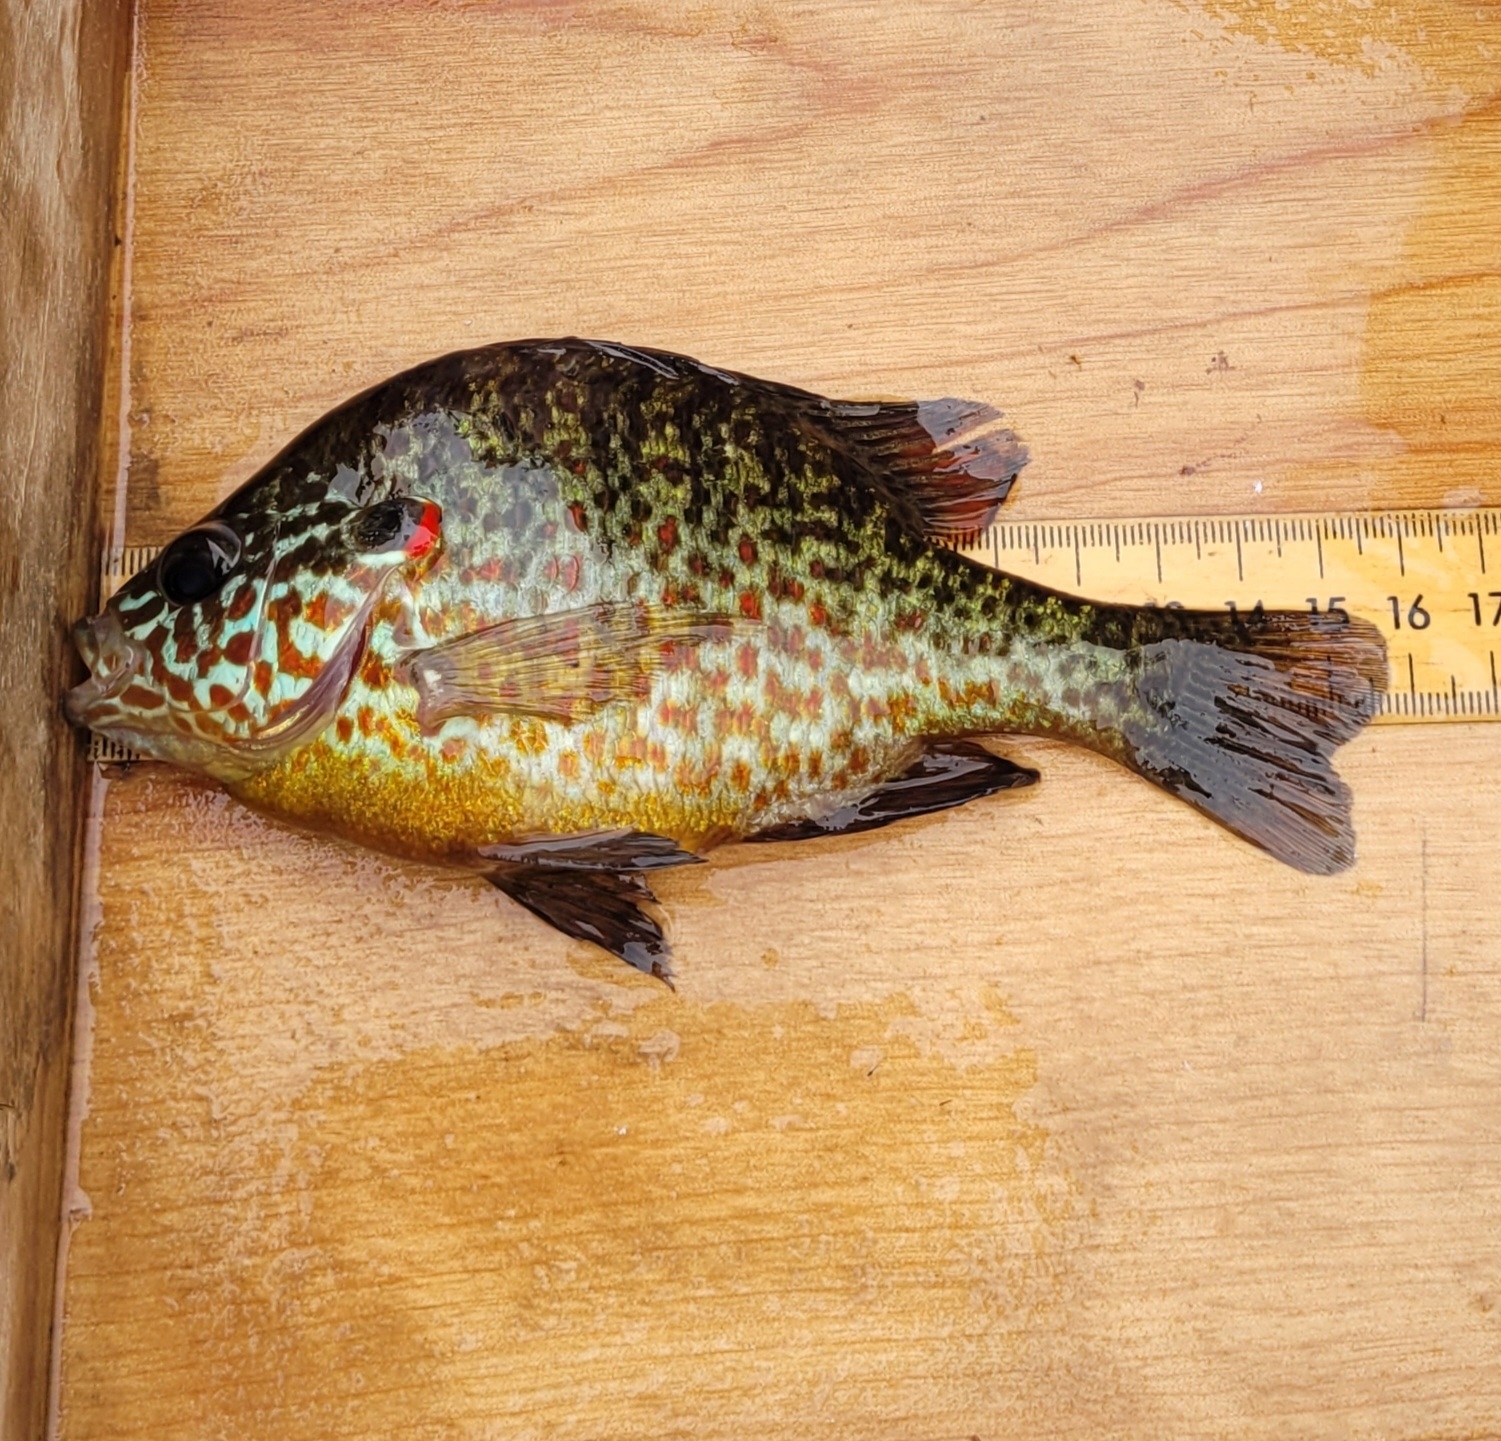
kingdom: Animalia
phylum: Chordata
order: Perciformes
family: Centrarchidae
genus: Lepomis
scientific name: Lepomis gibbosus
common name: Pumpkinseed
